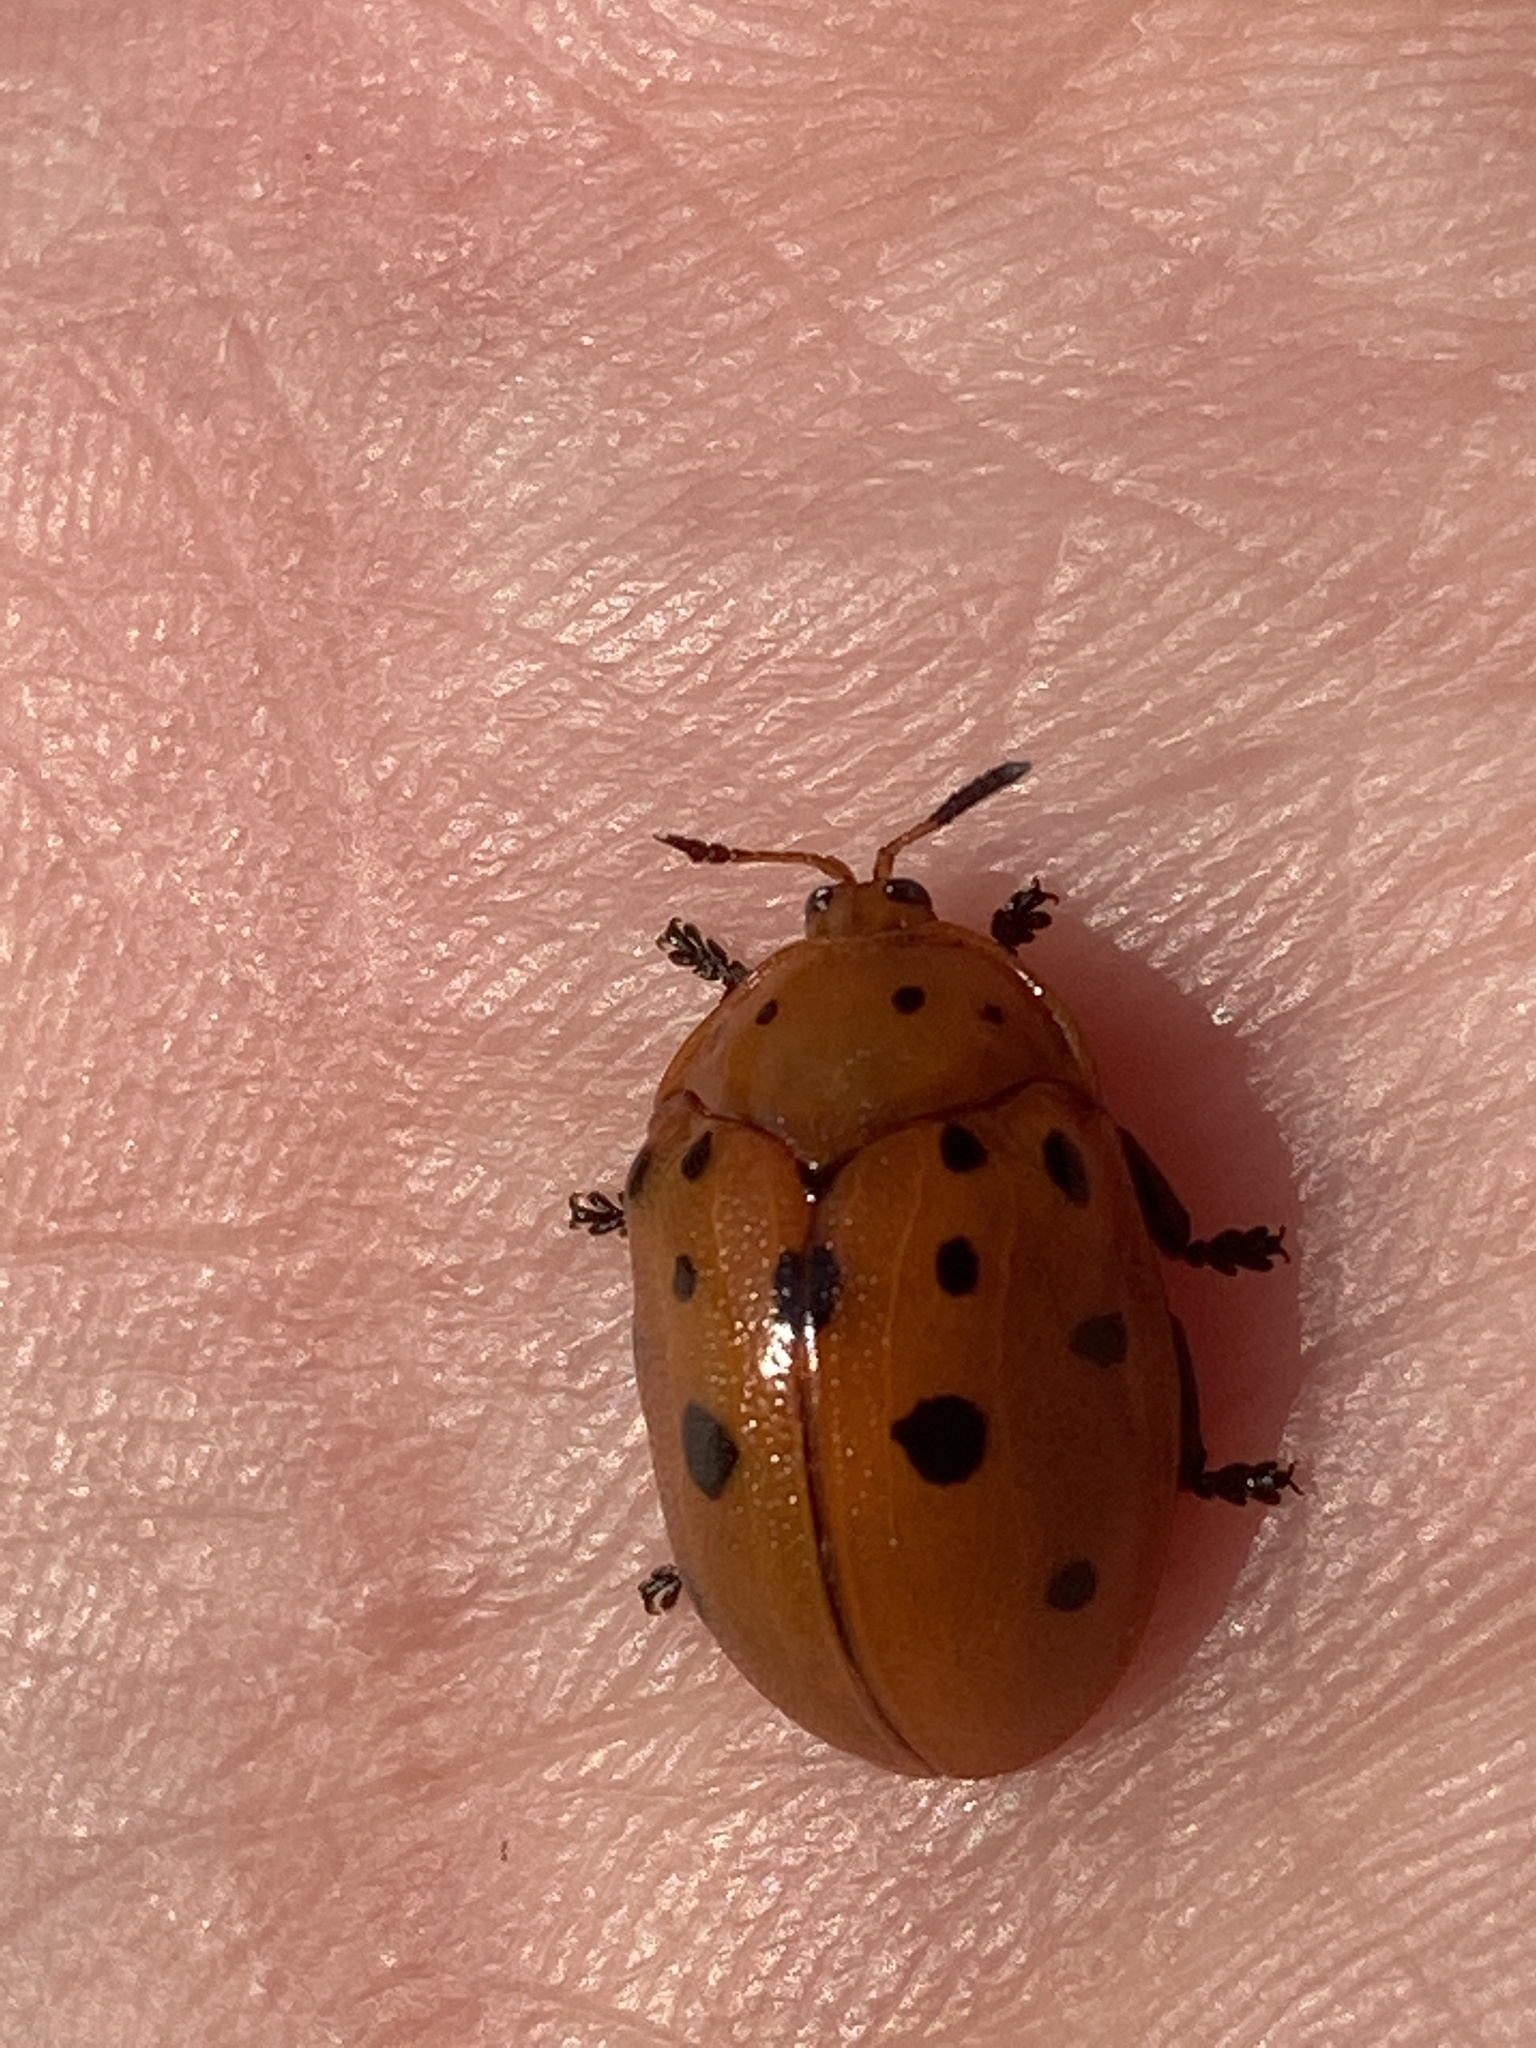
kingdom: Animalia
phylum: Arthropoda
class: Insecta
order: Coleoptera
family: Chrysomelidae
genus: Chelymorpha
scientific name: Chelymorpha cassidea
